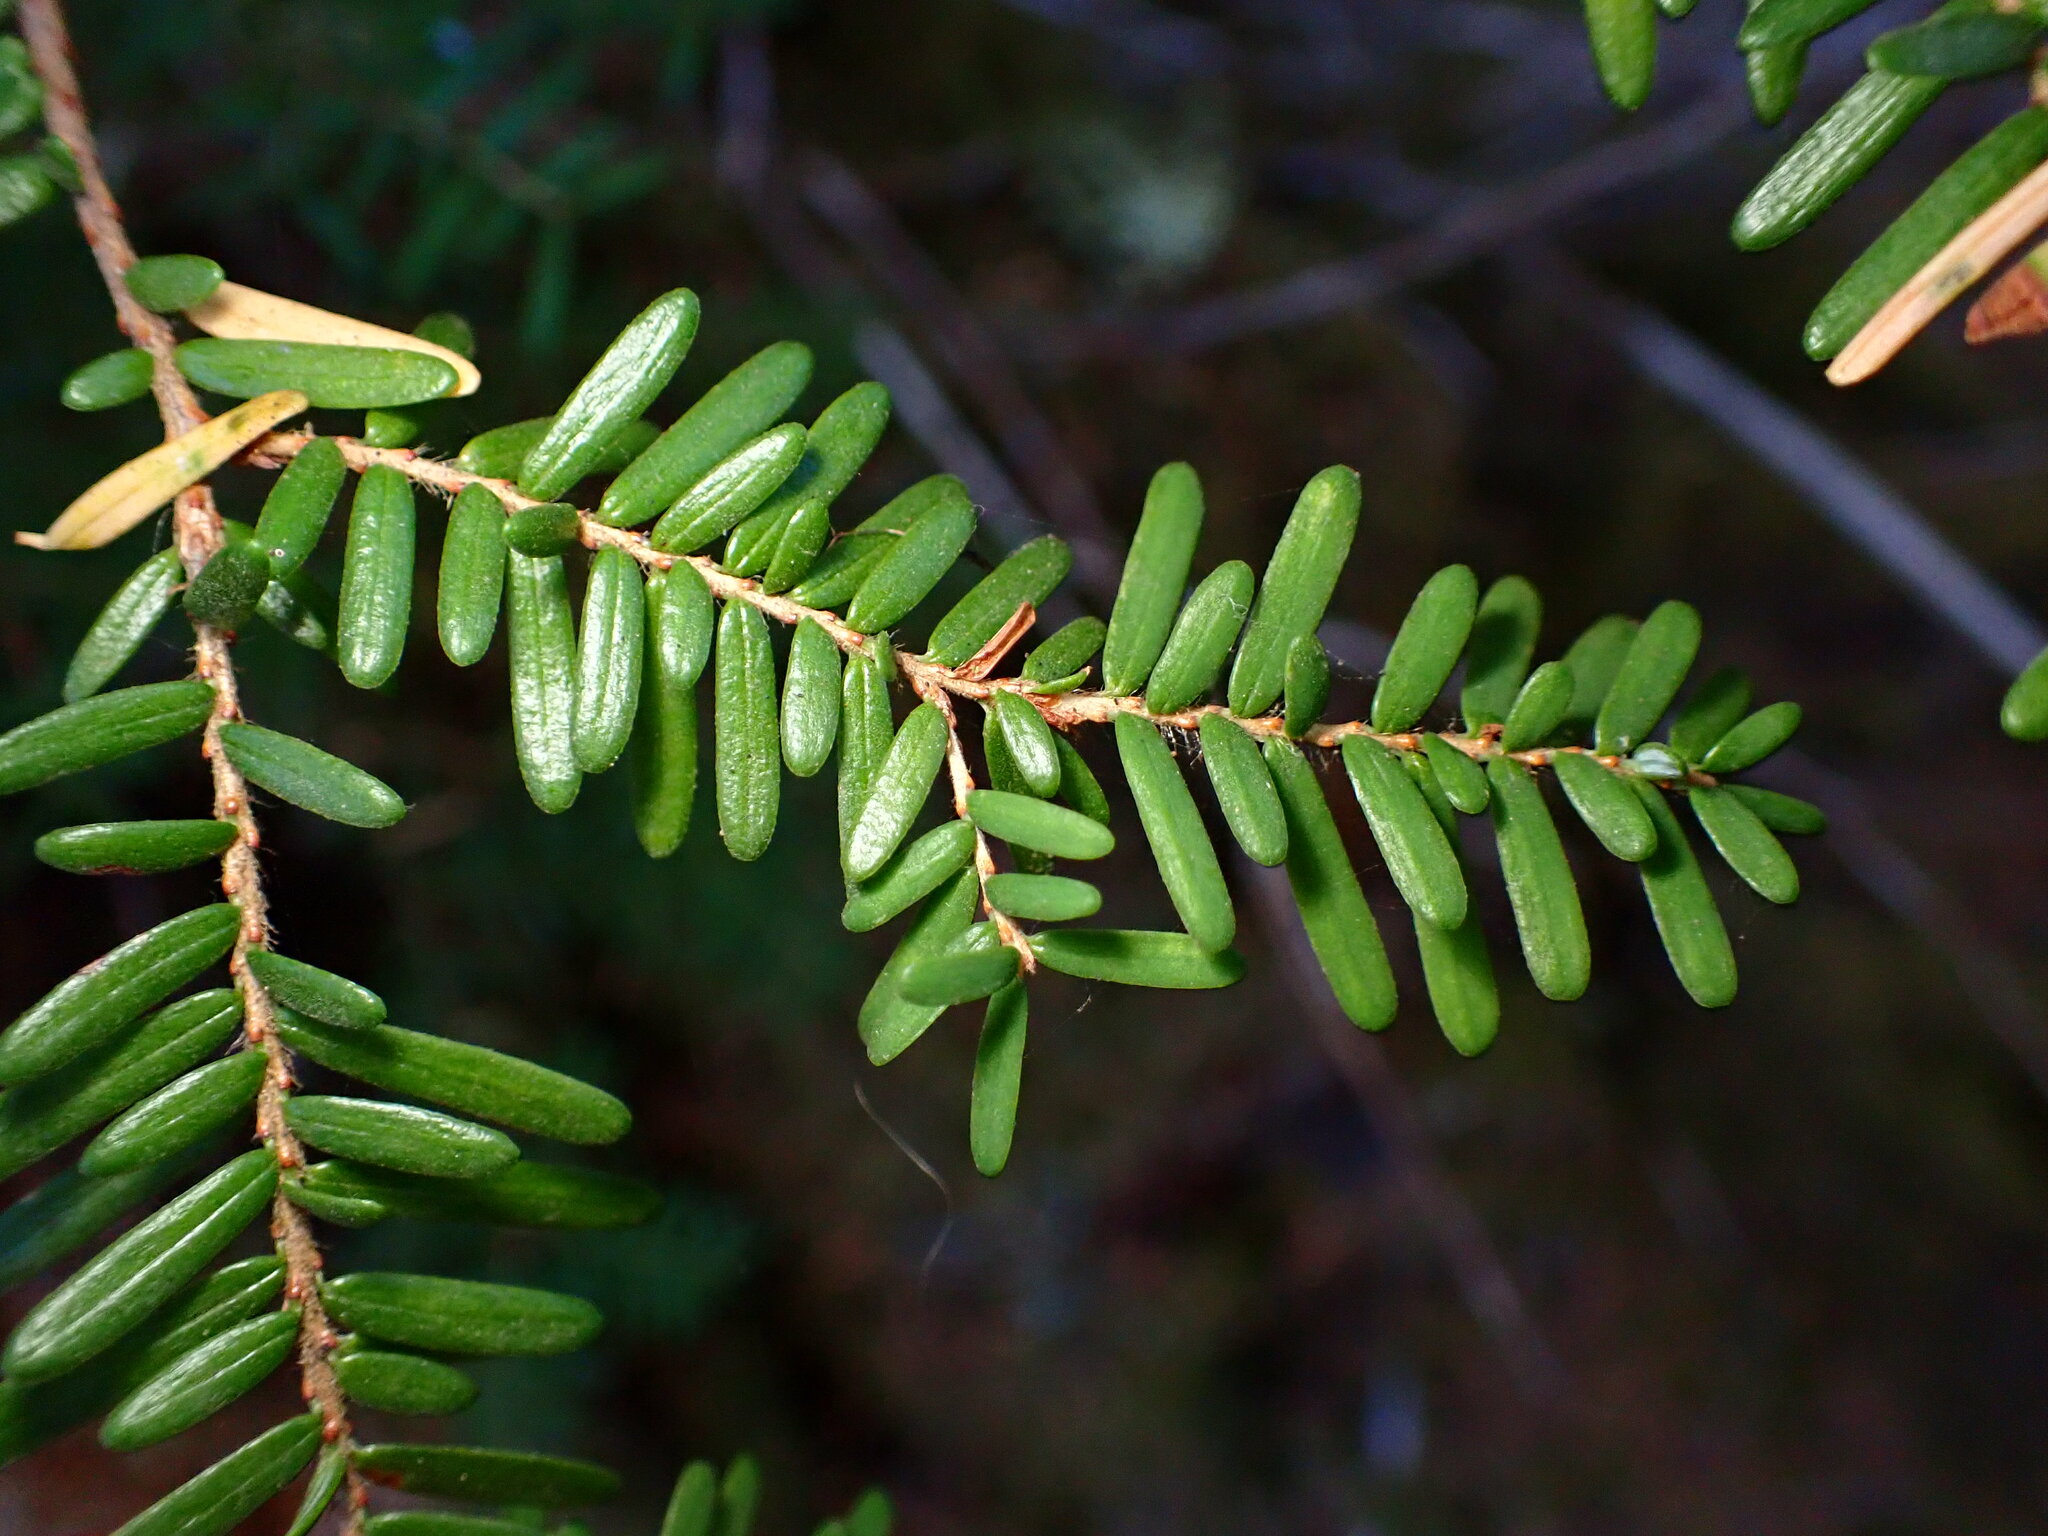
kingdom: Plantae
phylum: Tracheophyta
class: Pinopsida
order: Pinales
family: Pinaceae
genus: Tsuga
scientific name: Tsuga heterophylla
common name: Western hemlock
